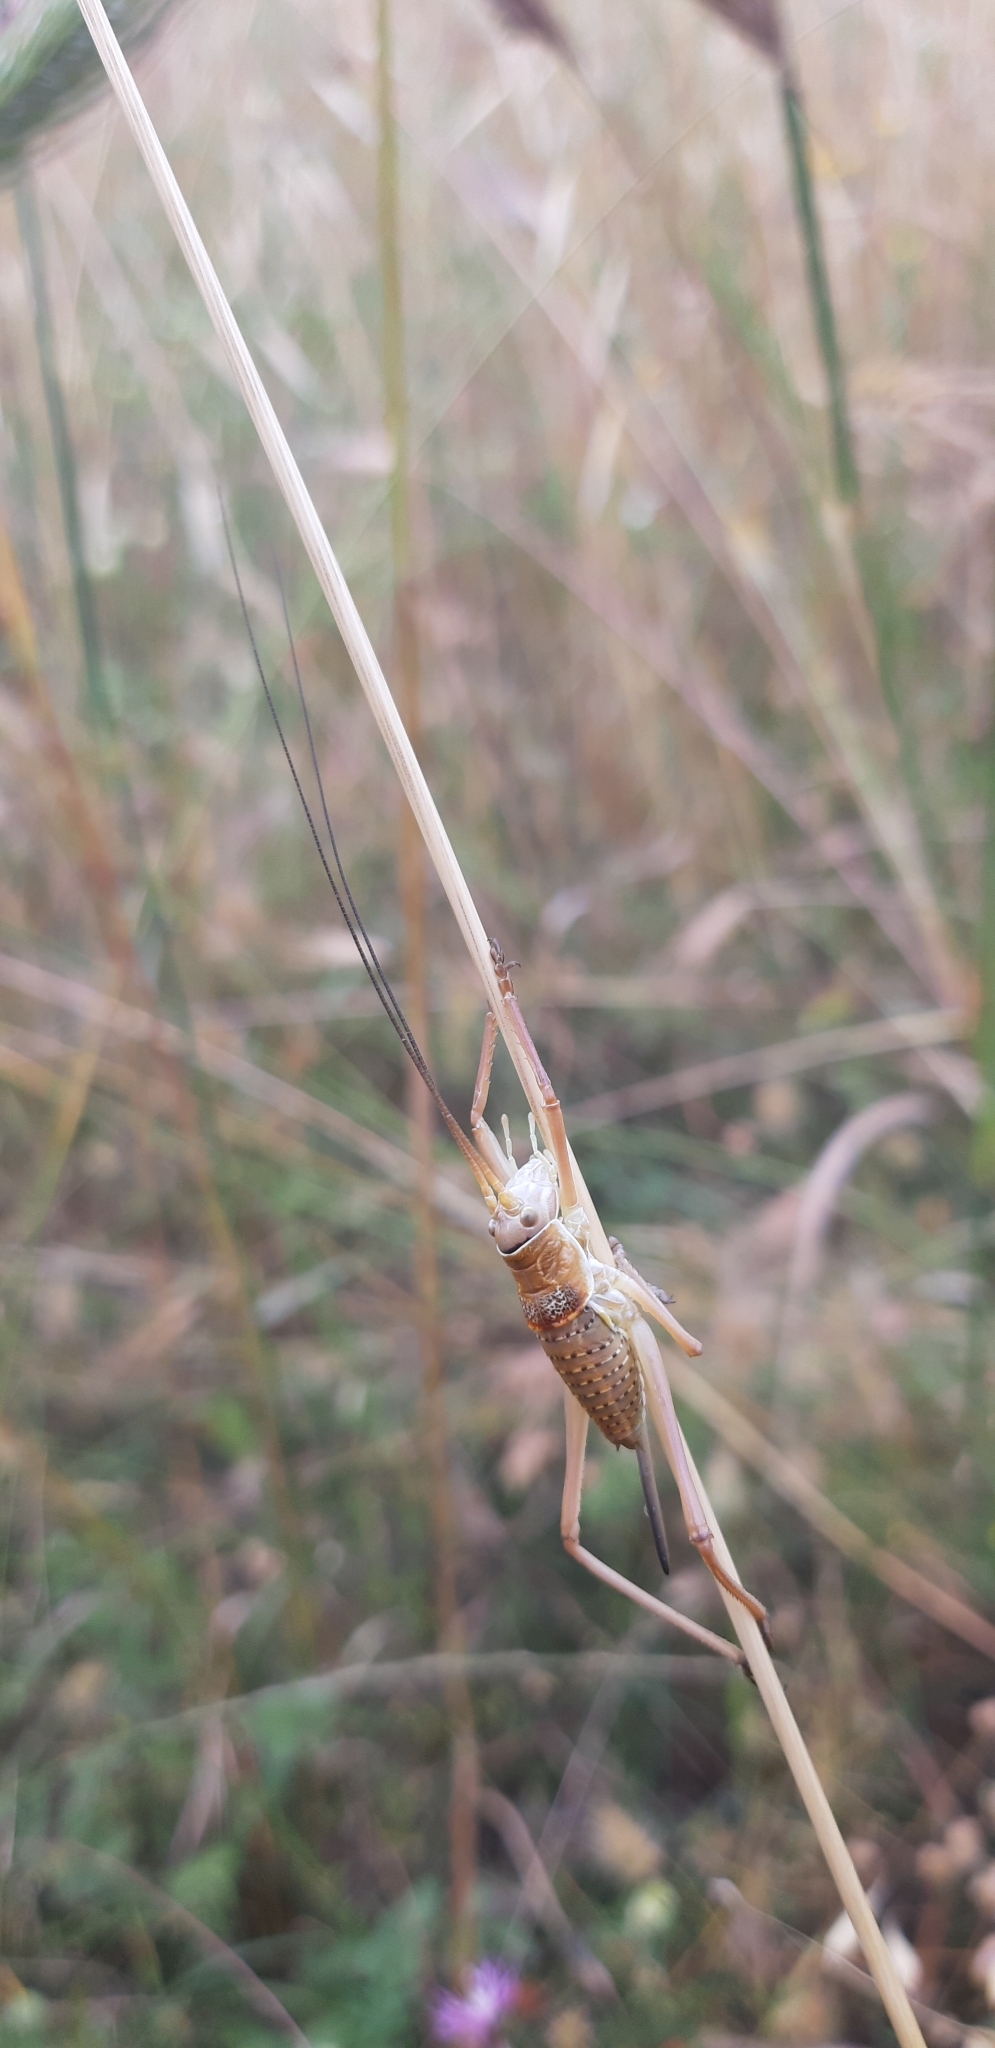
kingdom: Animalia
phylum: Arthropoda
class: Insecta
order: Orthoptera
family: Tettigoniidae
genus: Ephippiger
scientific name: Ephippiger apulus
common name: Apulian saddle bush-cricket
